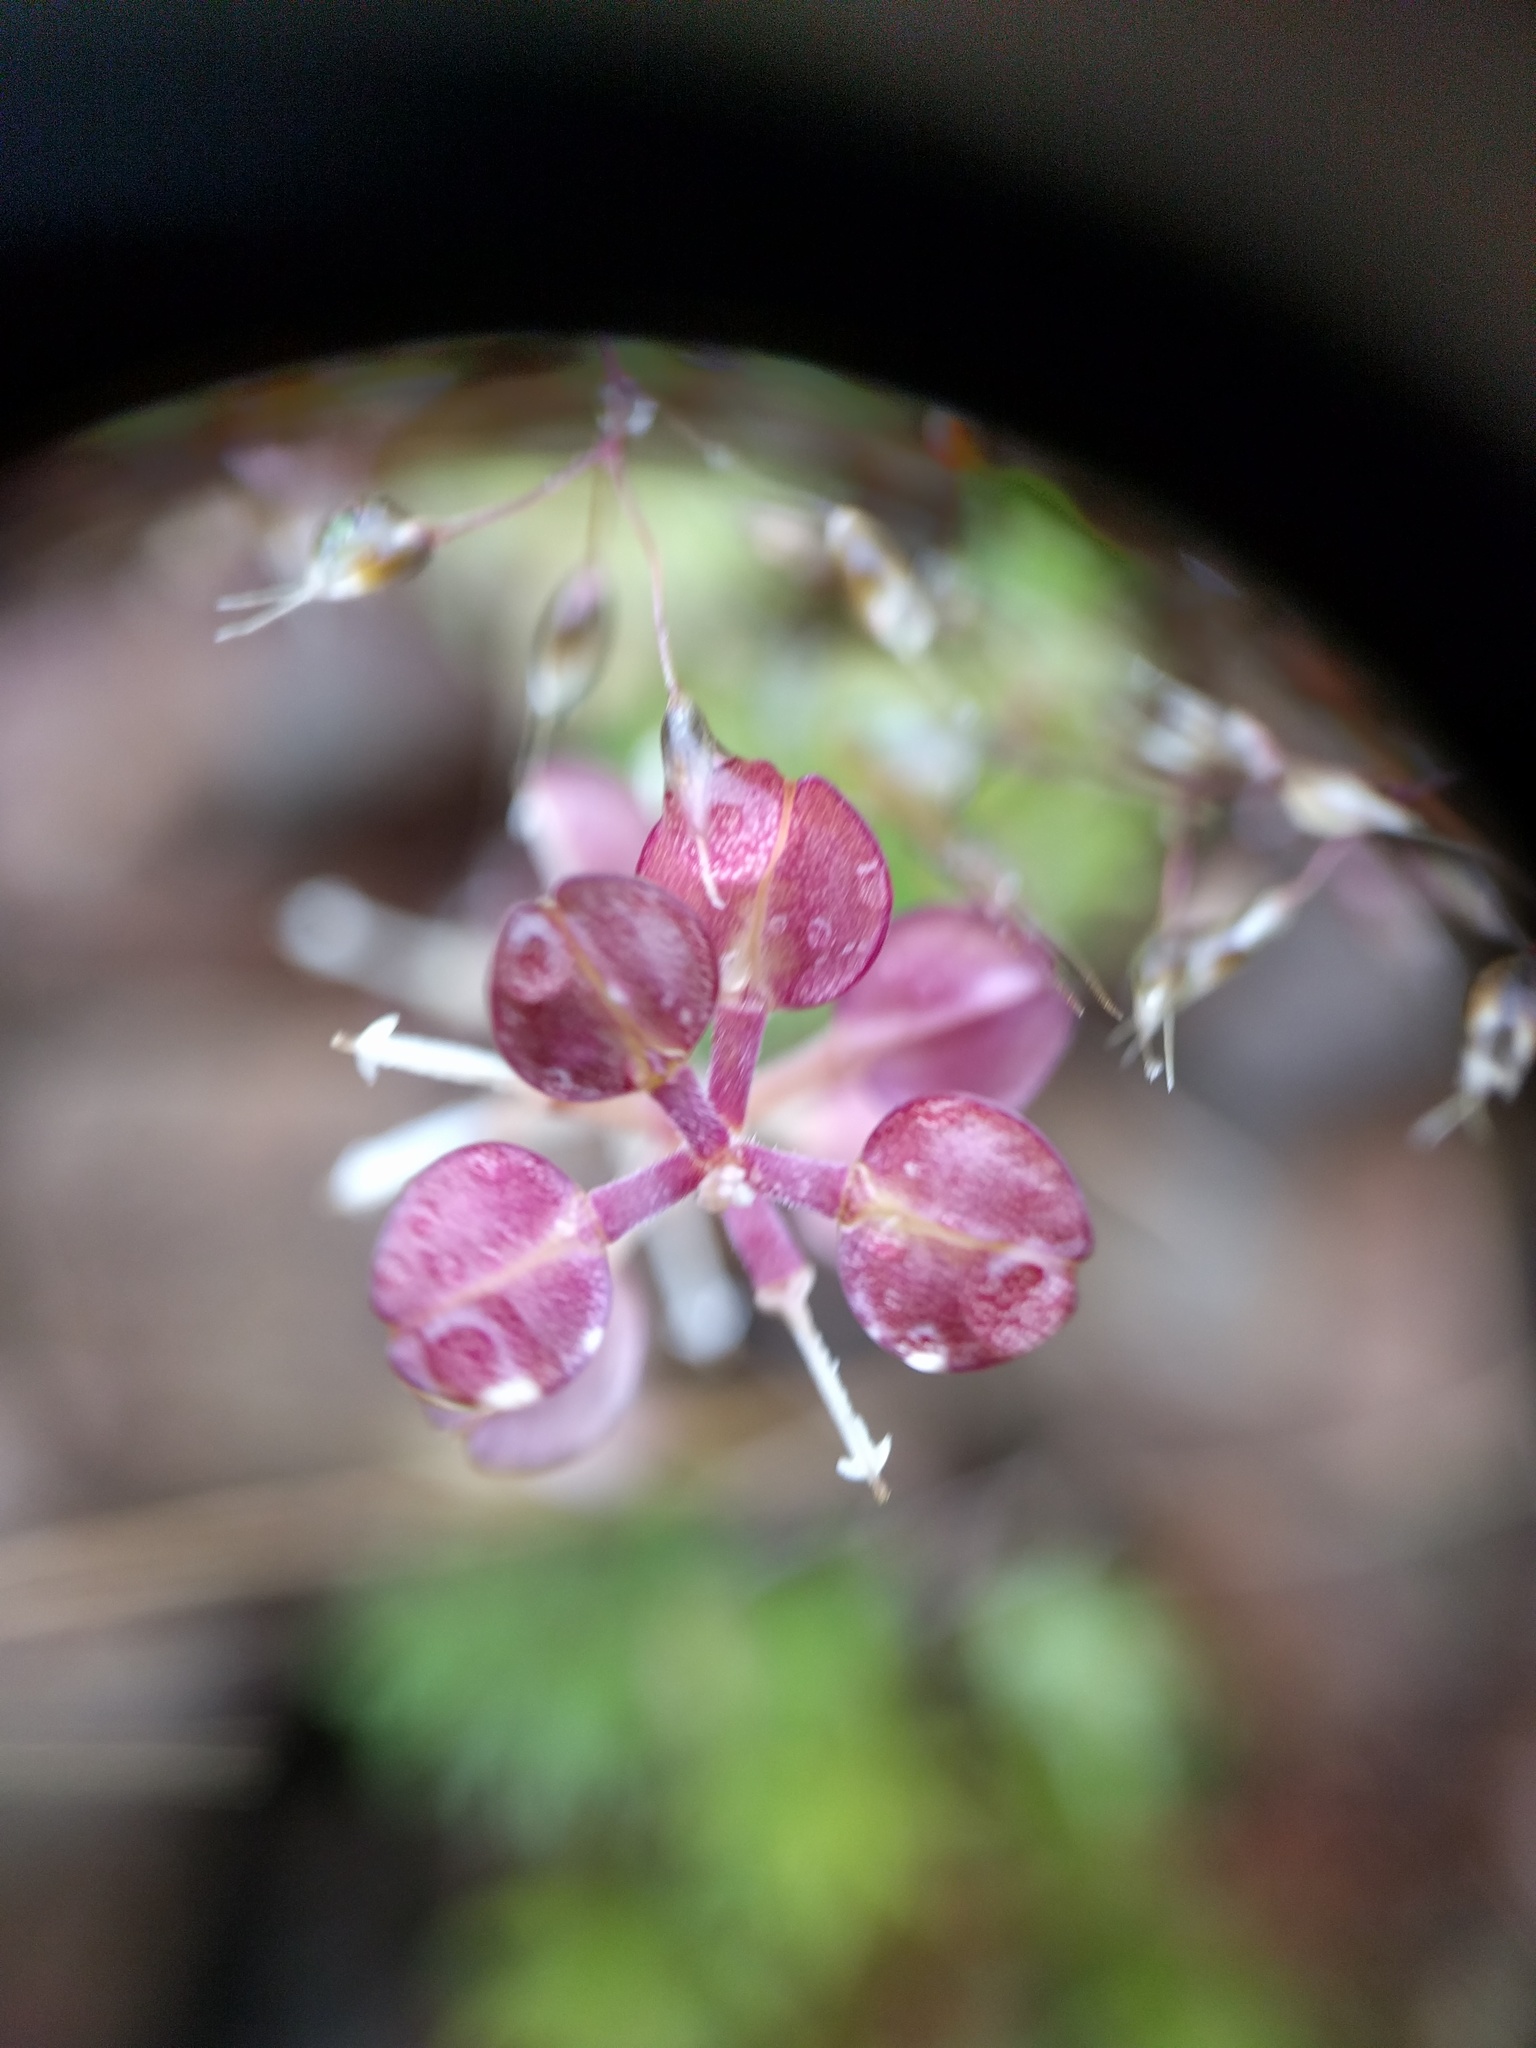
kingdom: Plantae
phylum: Tracheophyta
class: Magnoliopsida
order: Brassicales
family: Brassicaceae
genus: Lepidium
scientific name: Lepidium nitidum
